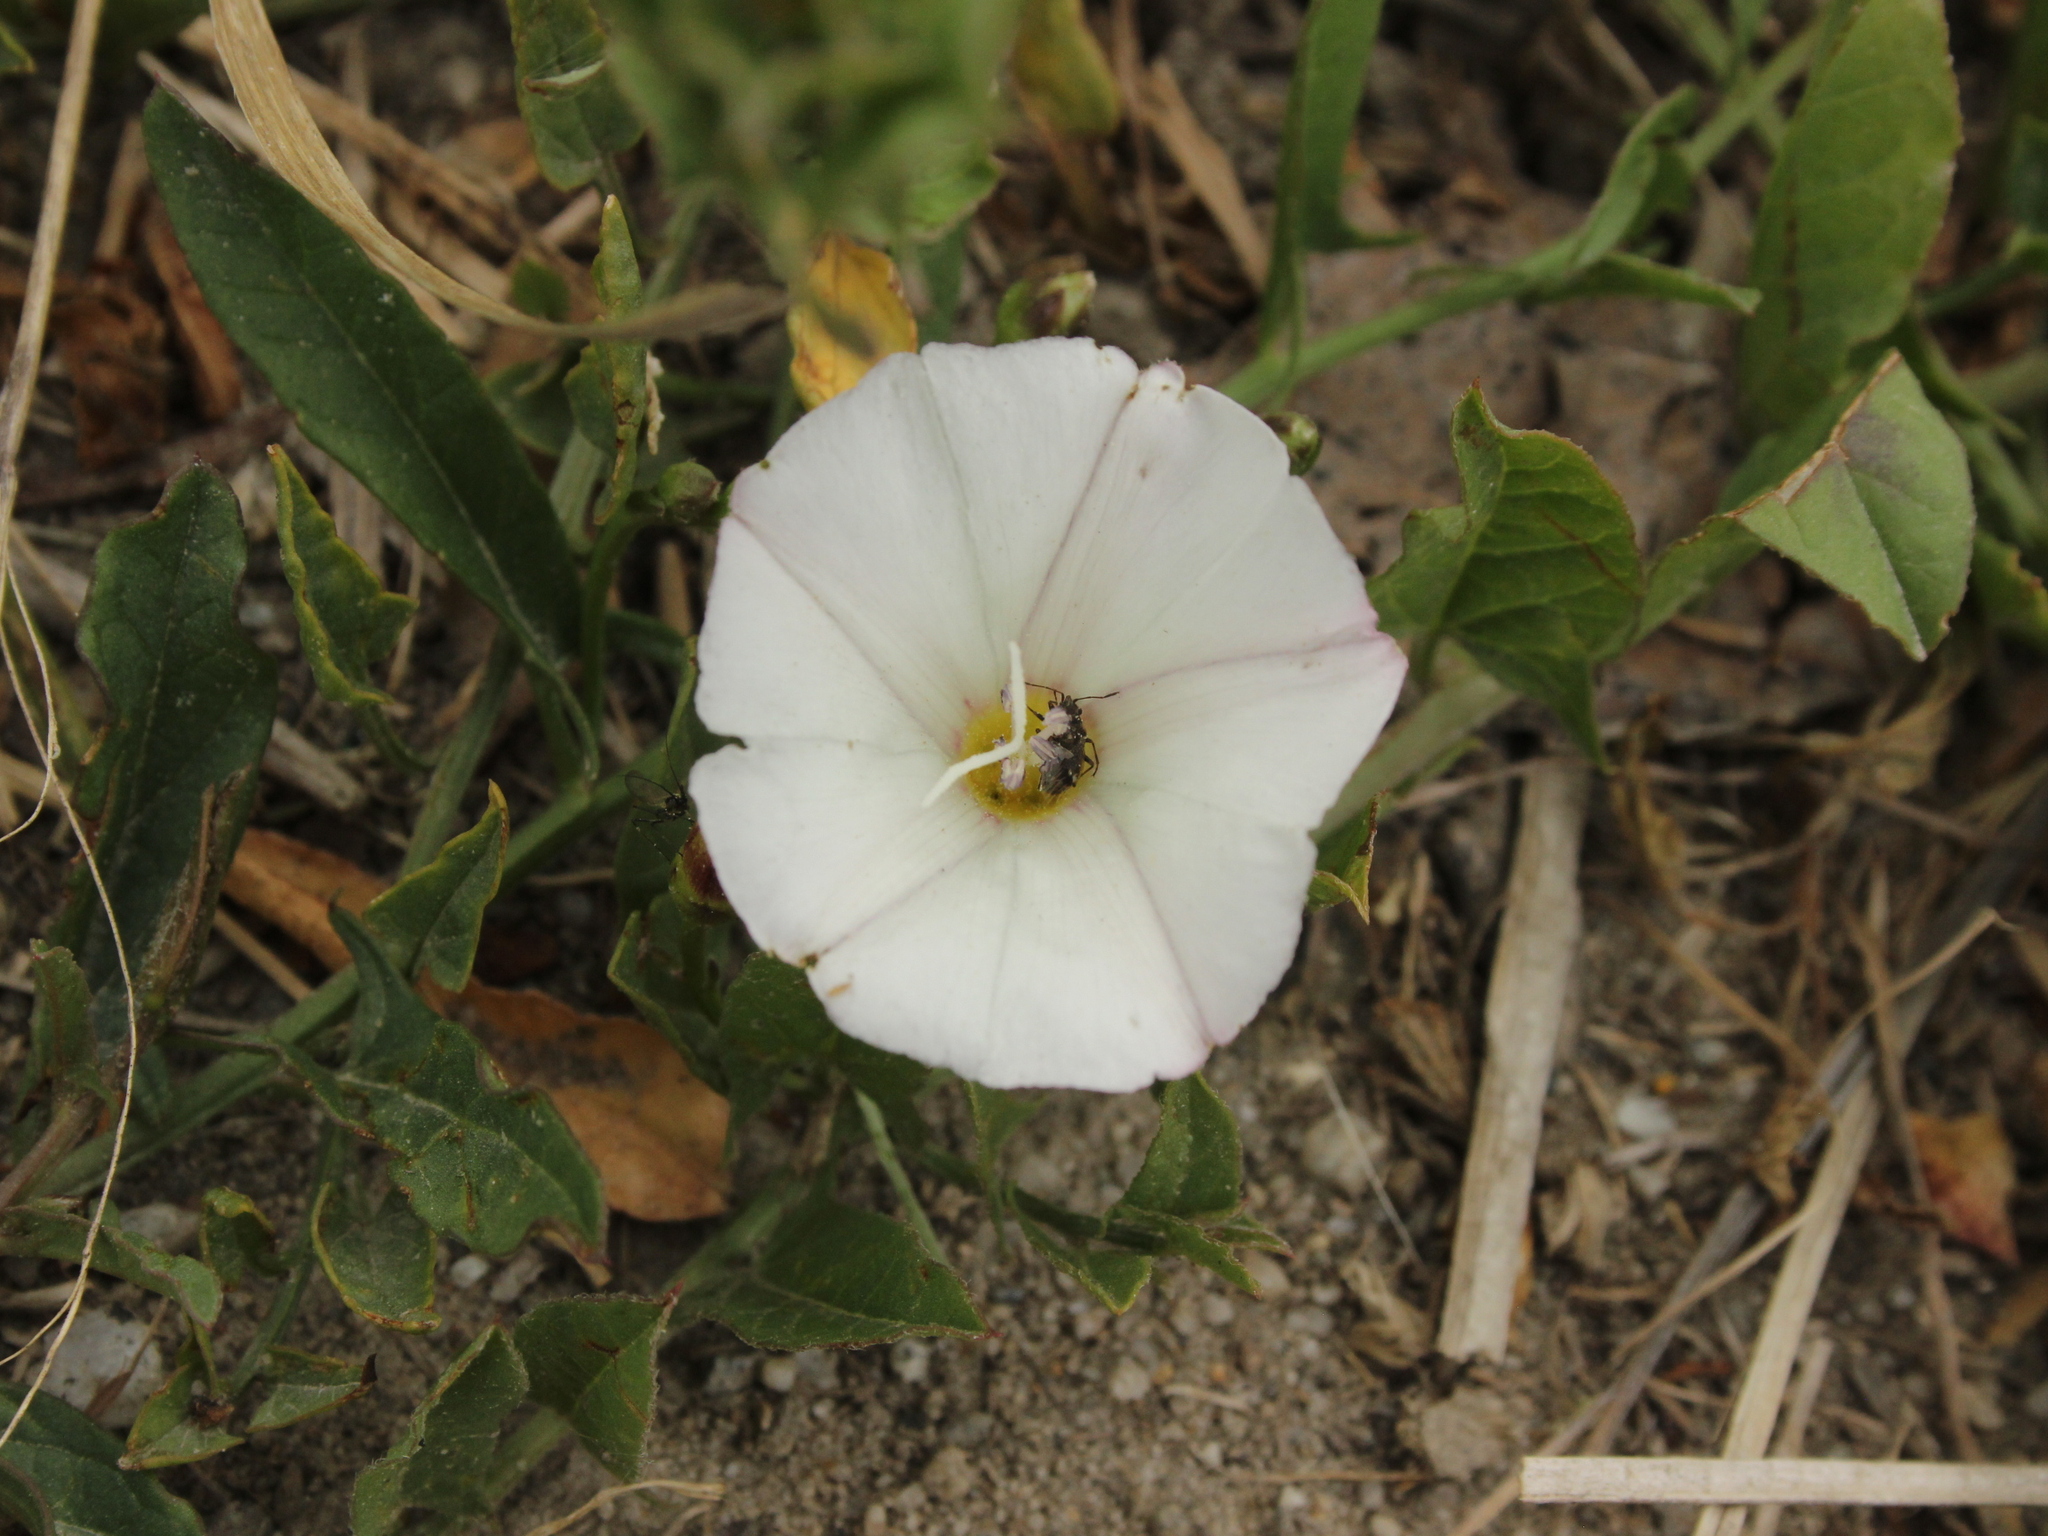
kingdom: Plantae
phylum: Tracheophyta
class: Magnoliopsida
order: Solanales
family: Convolvulaceae
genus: Convolvulus
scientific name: Convolvulus arvensis
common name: Field bindweed
